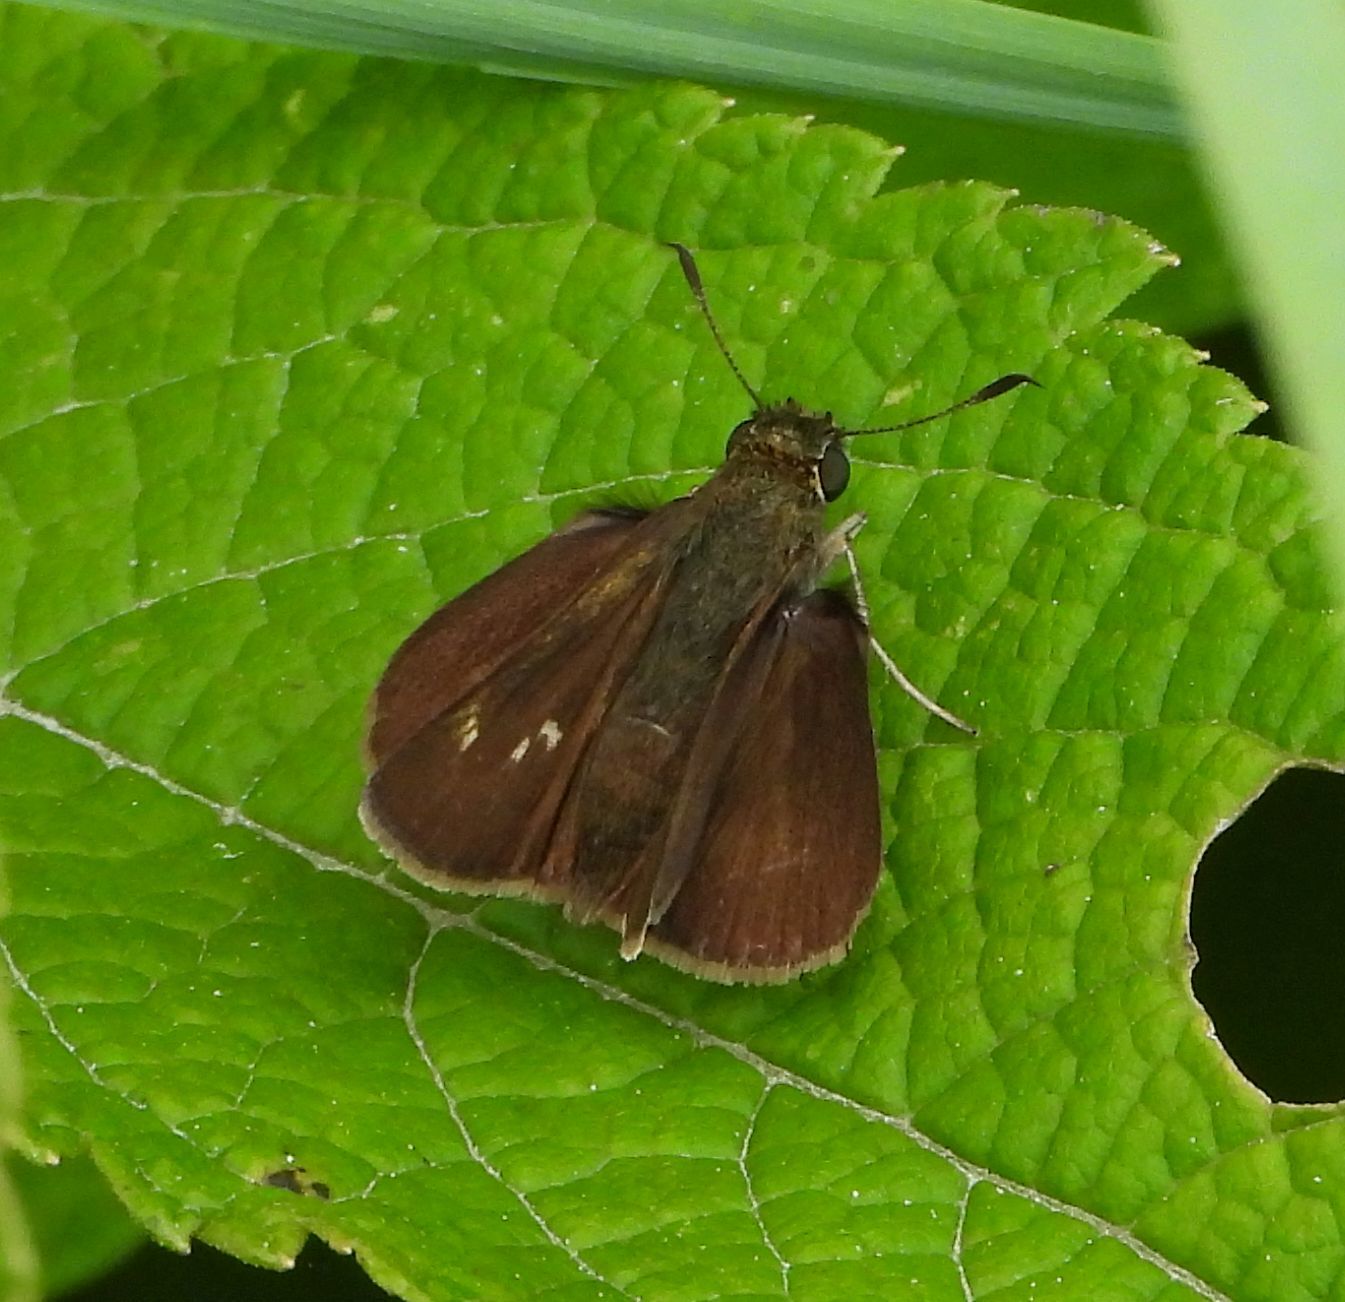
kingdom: Animalia
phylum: Arthropoda
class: Insecta
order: Lepidoptera
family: Hesperiidae
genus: Euphyes
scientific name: Euphyes vestris
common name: Dun skipper
